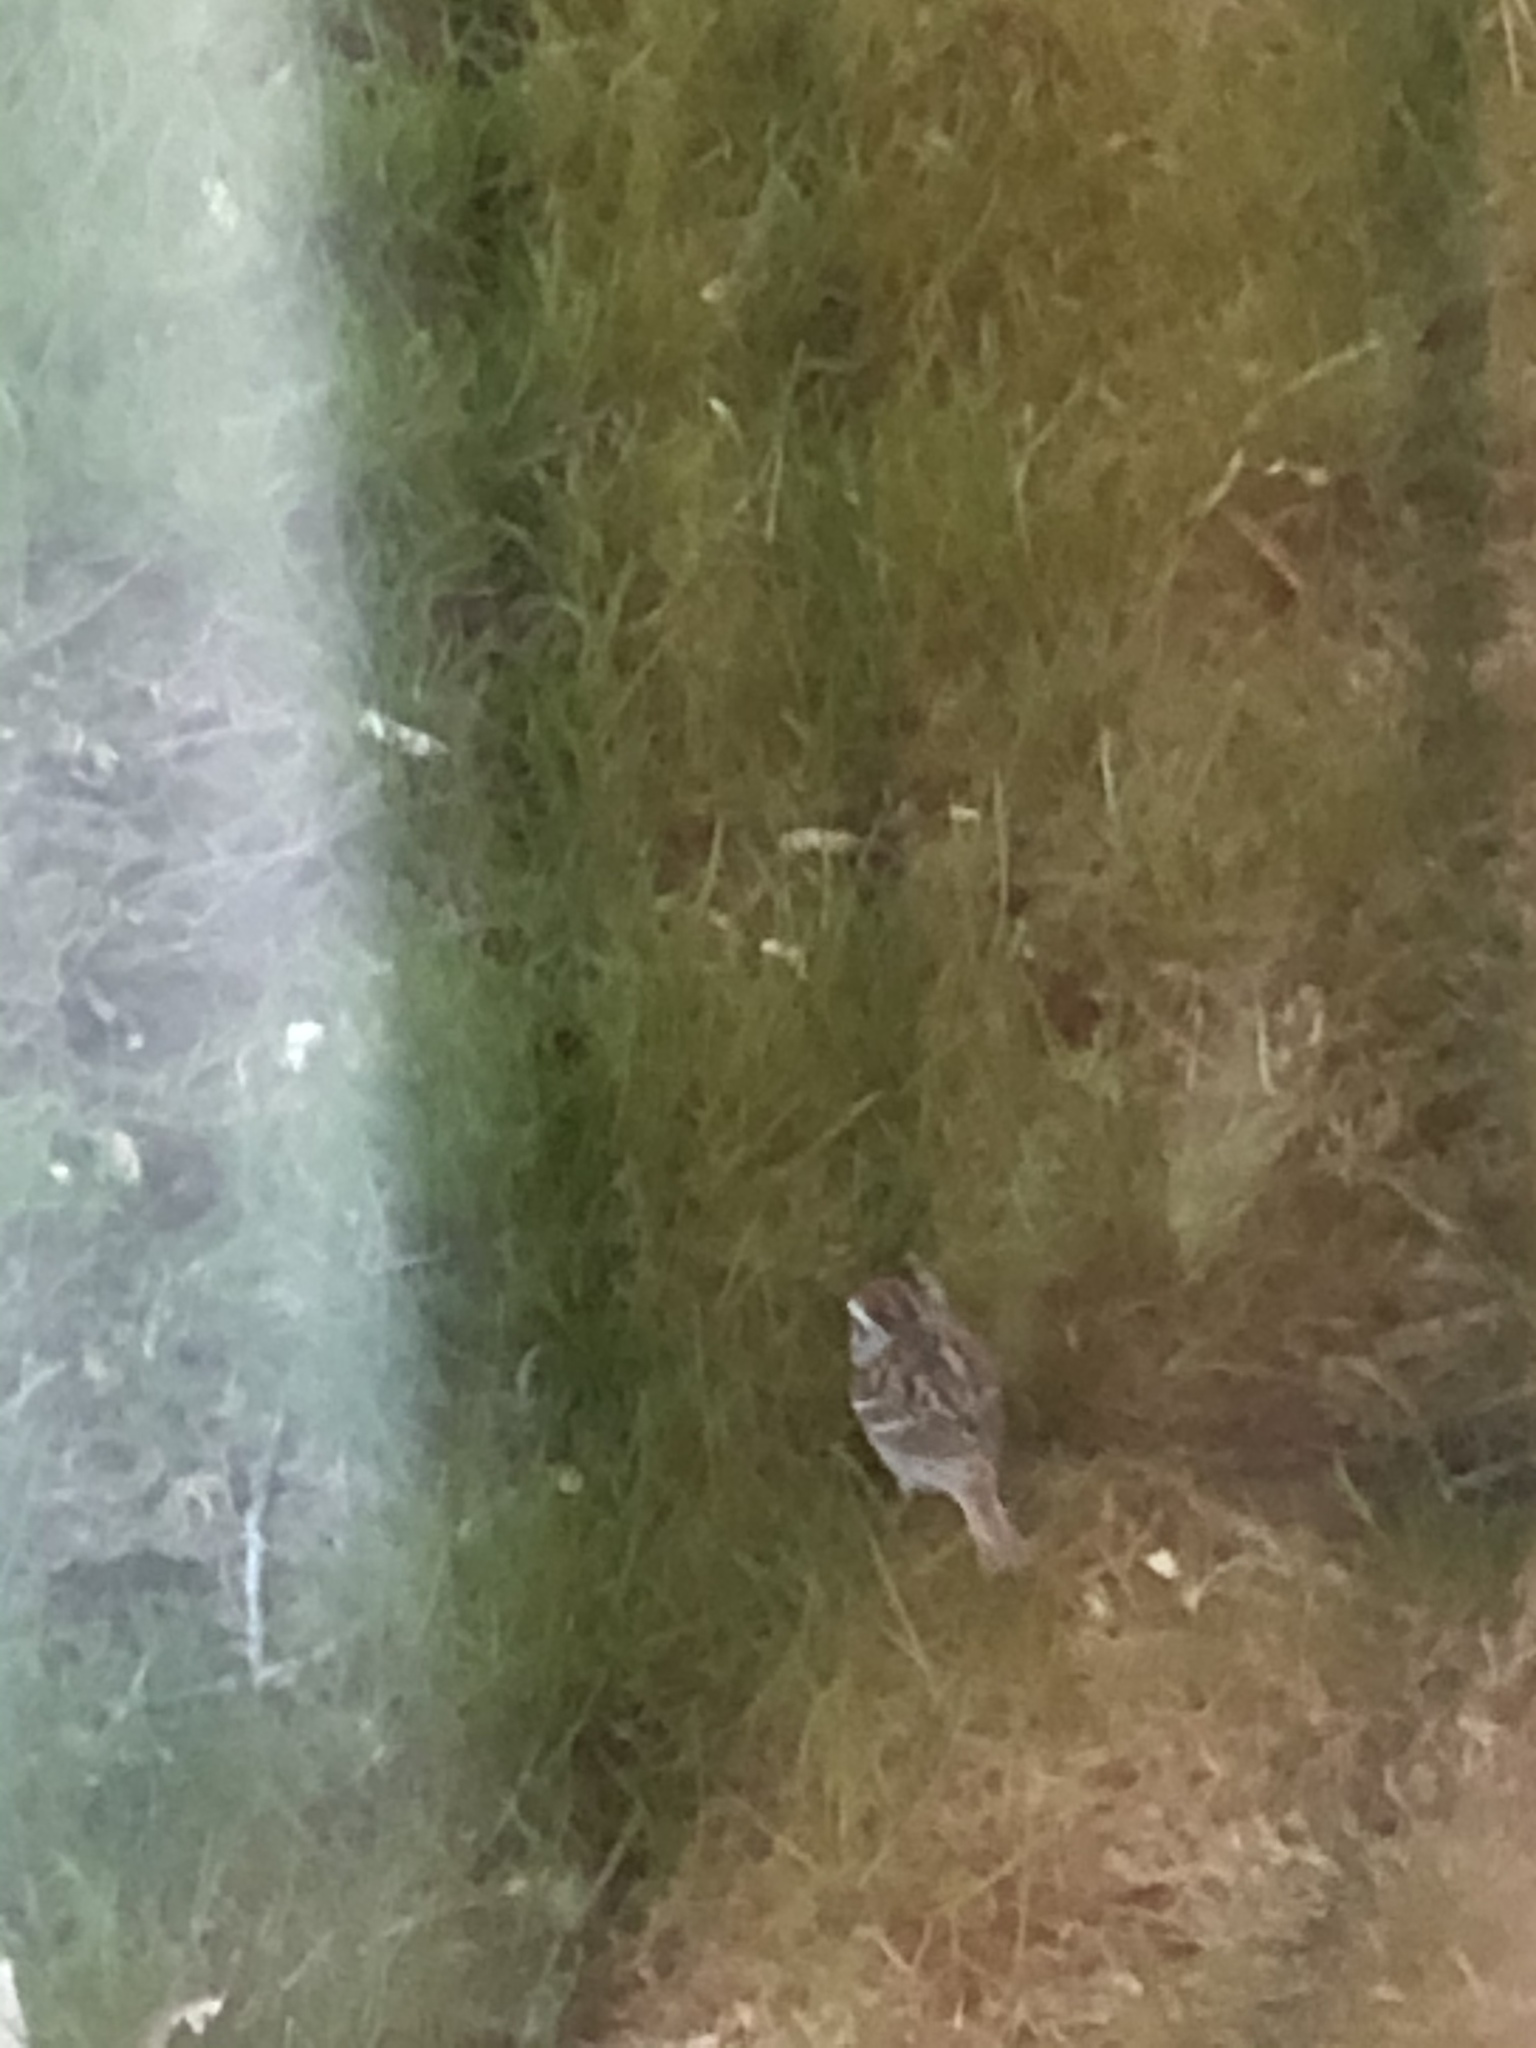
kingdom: Animalia
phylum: Chordata
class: Aves
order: Passeriformes
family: Passerellidae
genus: Spizella
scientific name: Spizella passerina
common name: Chipping sparrow
